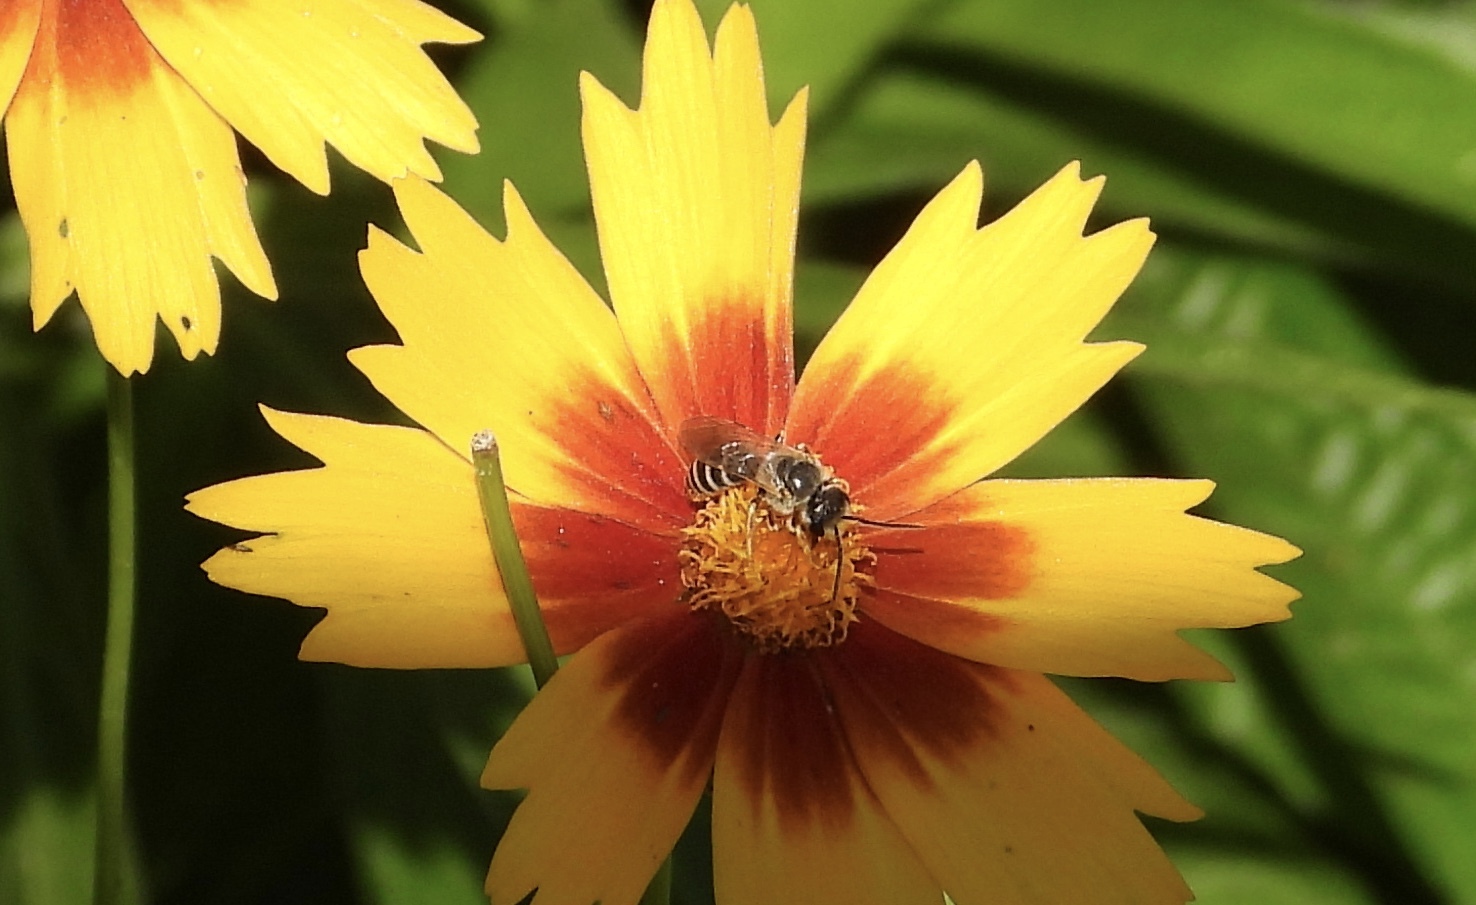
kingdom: Animalia
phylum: Arthropoda
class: Insecta
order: Hymenoptera
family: Halictidae
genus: Halictus
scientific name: Halictus ligatus
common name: Ligated furrow bee
